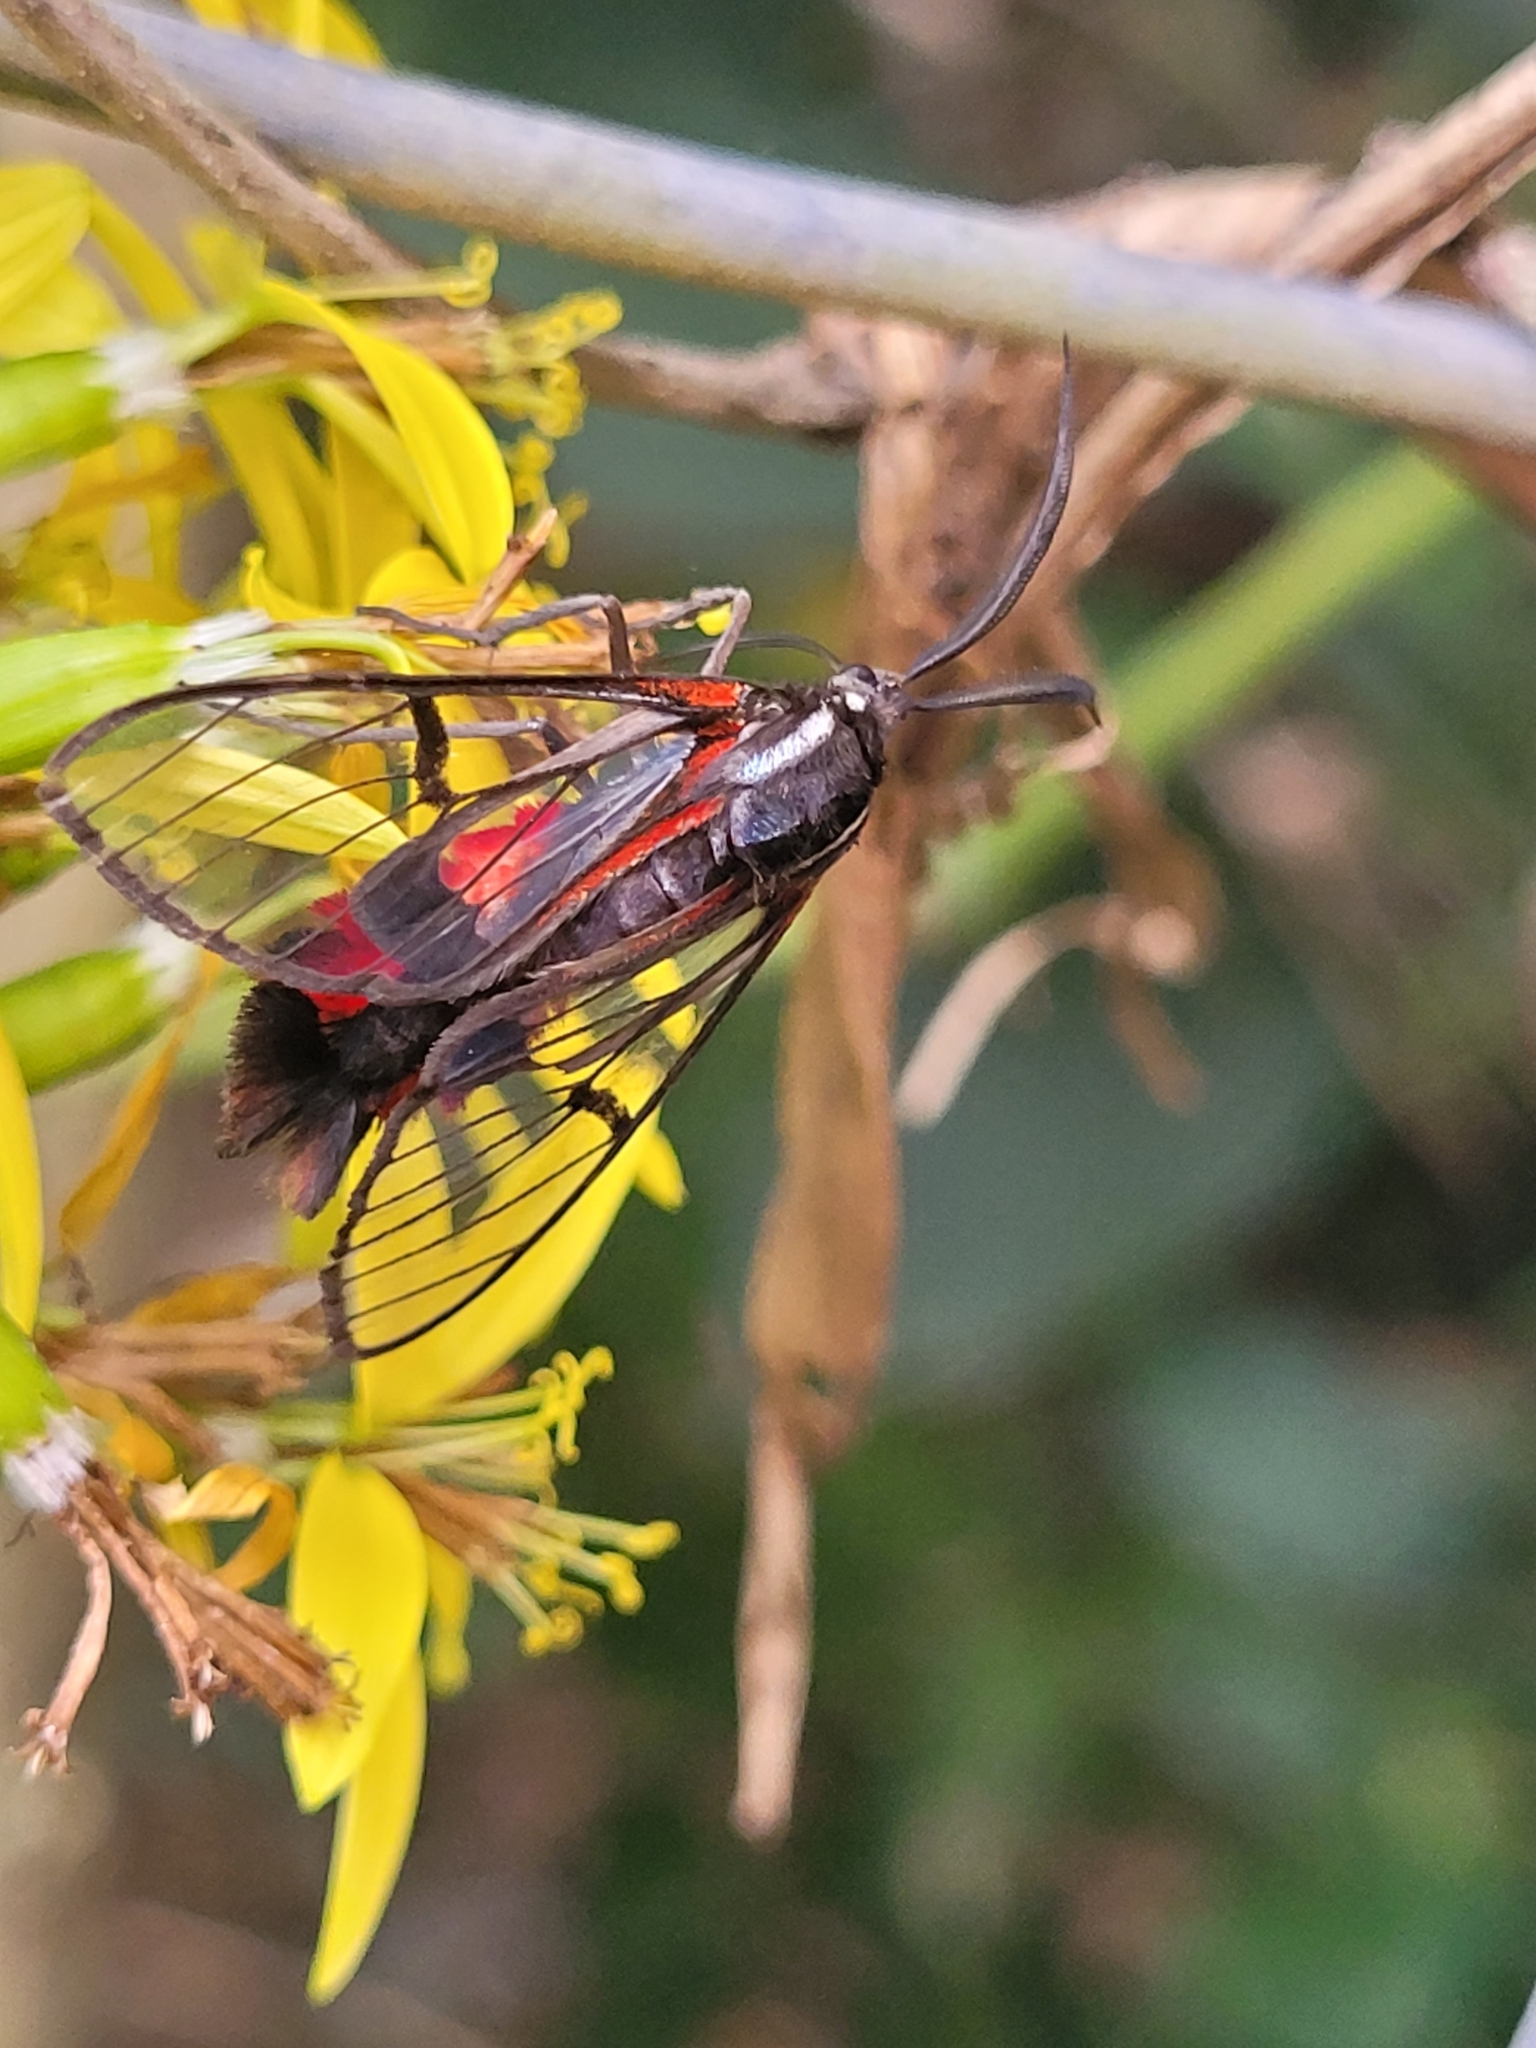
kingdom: Animalia
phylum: Arthropoda
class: Insecta
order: Lepidoptera
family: Erebidae
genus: Dinia
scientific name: Dinia mena
